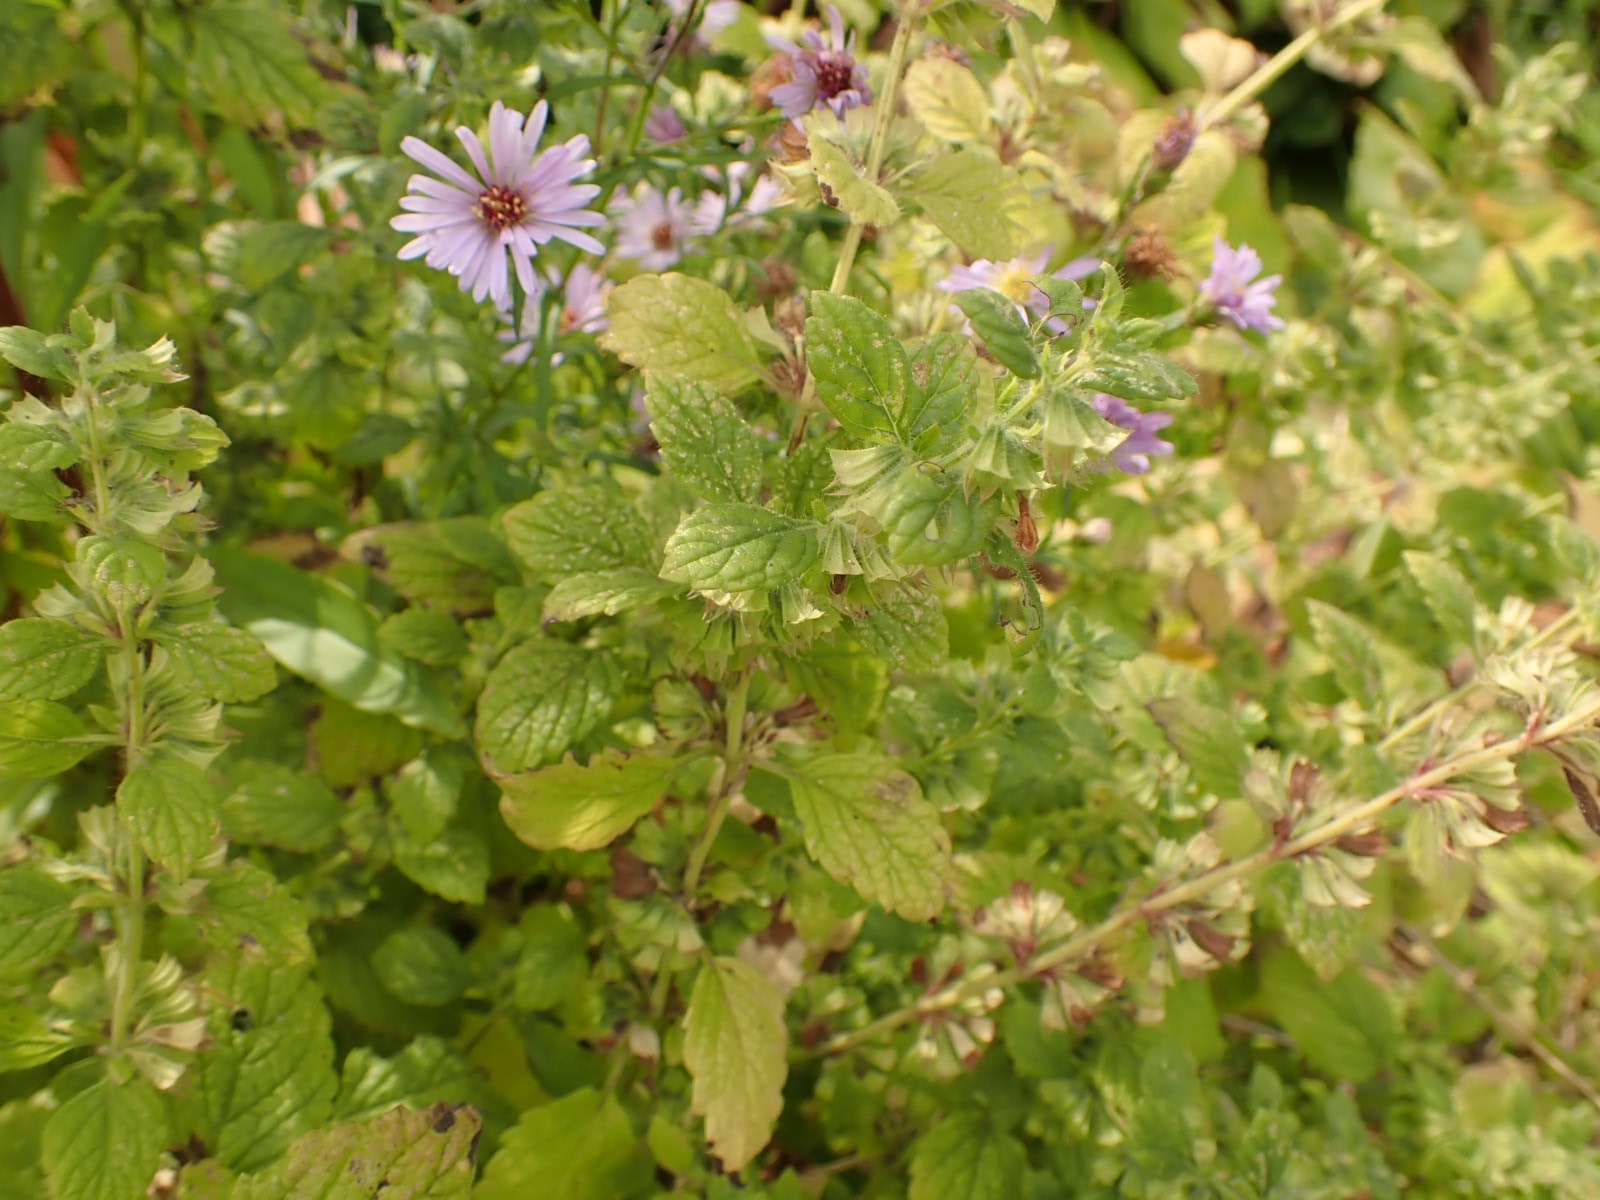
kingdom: Plantae
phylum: Tracheophyta
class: Magnoliopsida
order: Lamiales
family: Lamiaceae
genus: Melissa
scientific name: Melissa officinalis
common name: Balm
